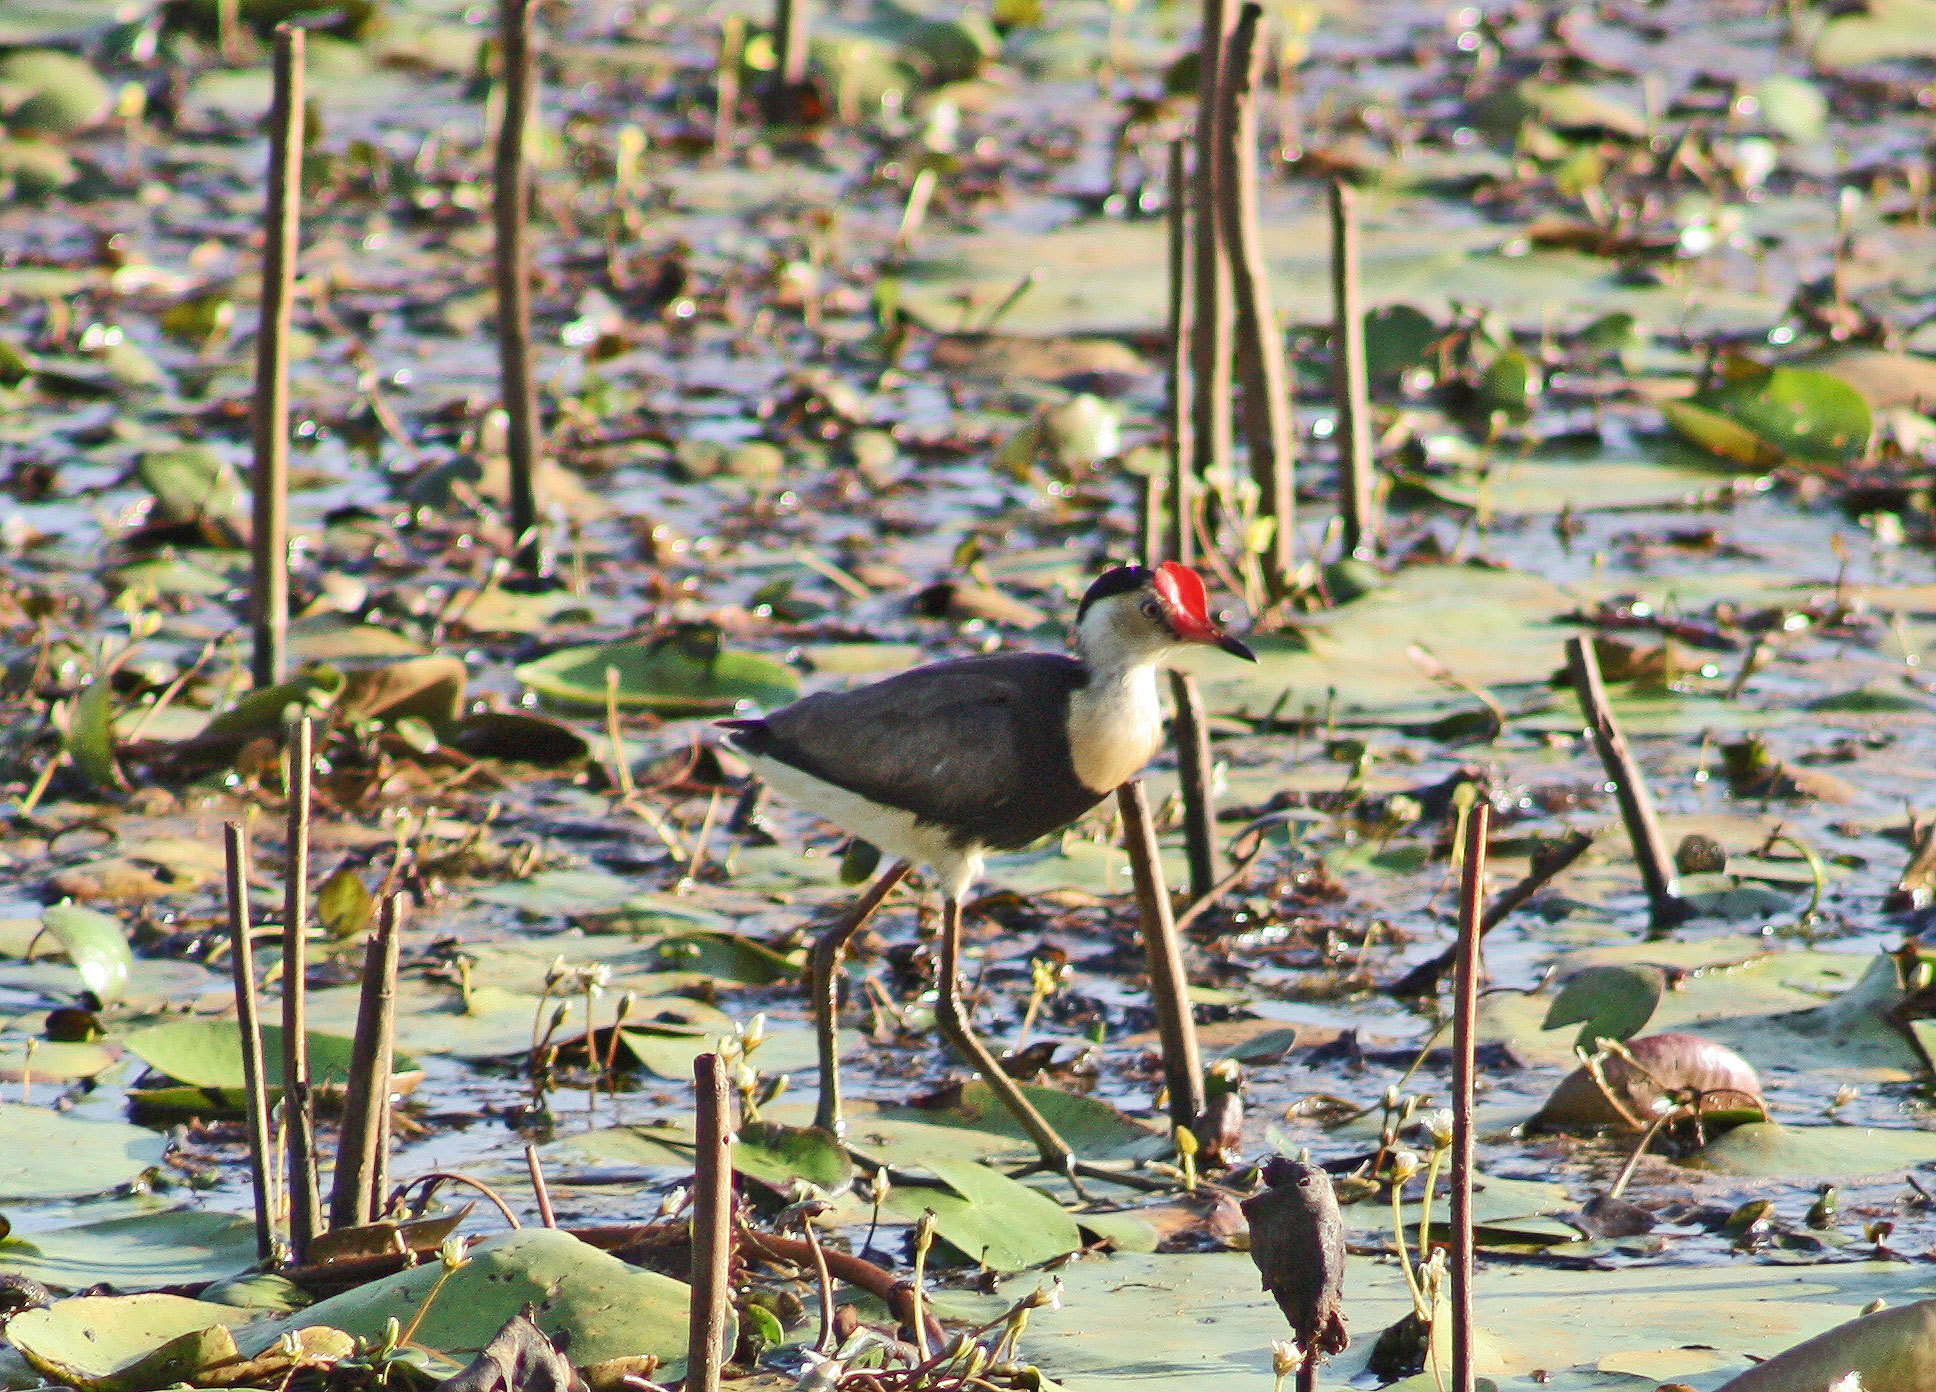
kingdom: Animalia
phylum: Chordata
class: Aves
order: Charadriiformes
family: Jacanidae
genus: Irediparra
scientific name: Irediparra gallinacea
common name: Comb-crested jacana
